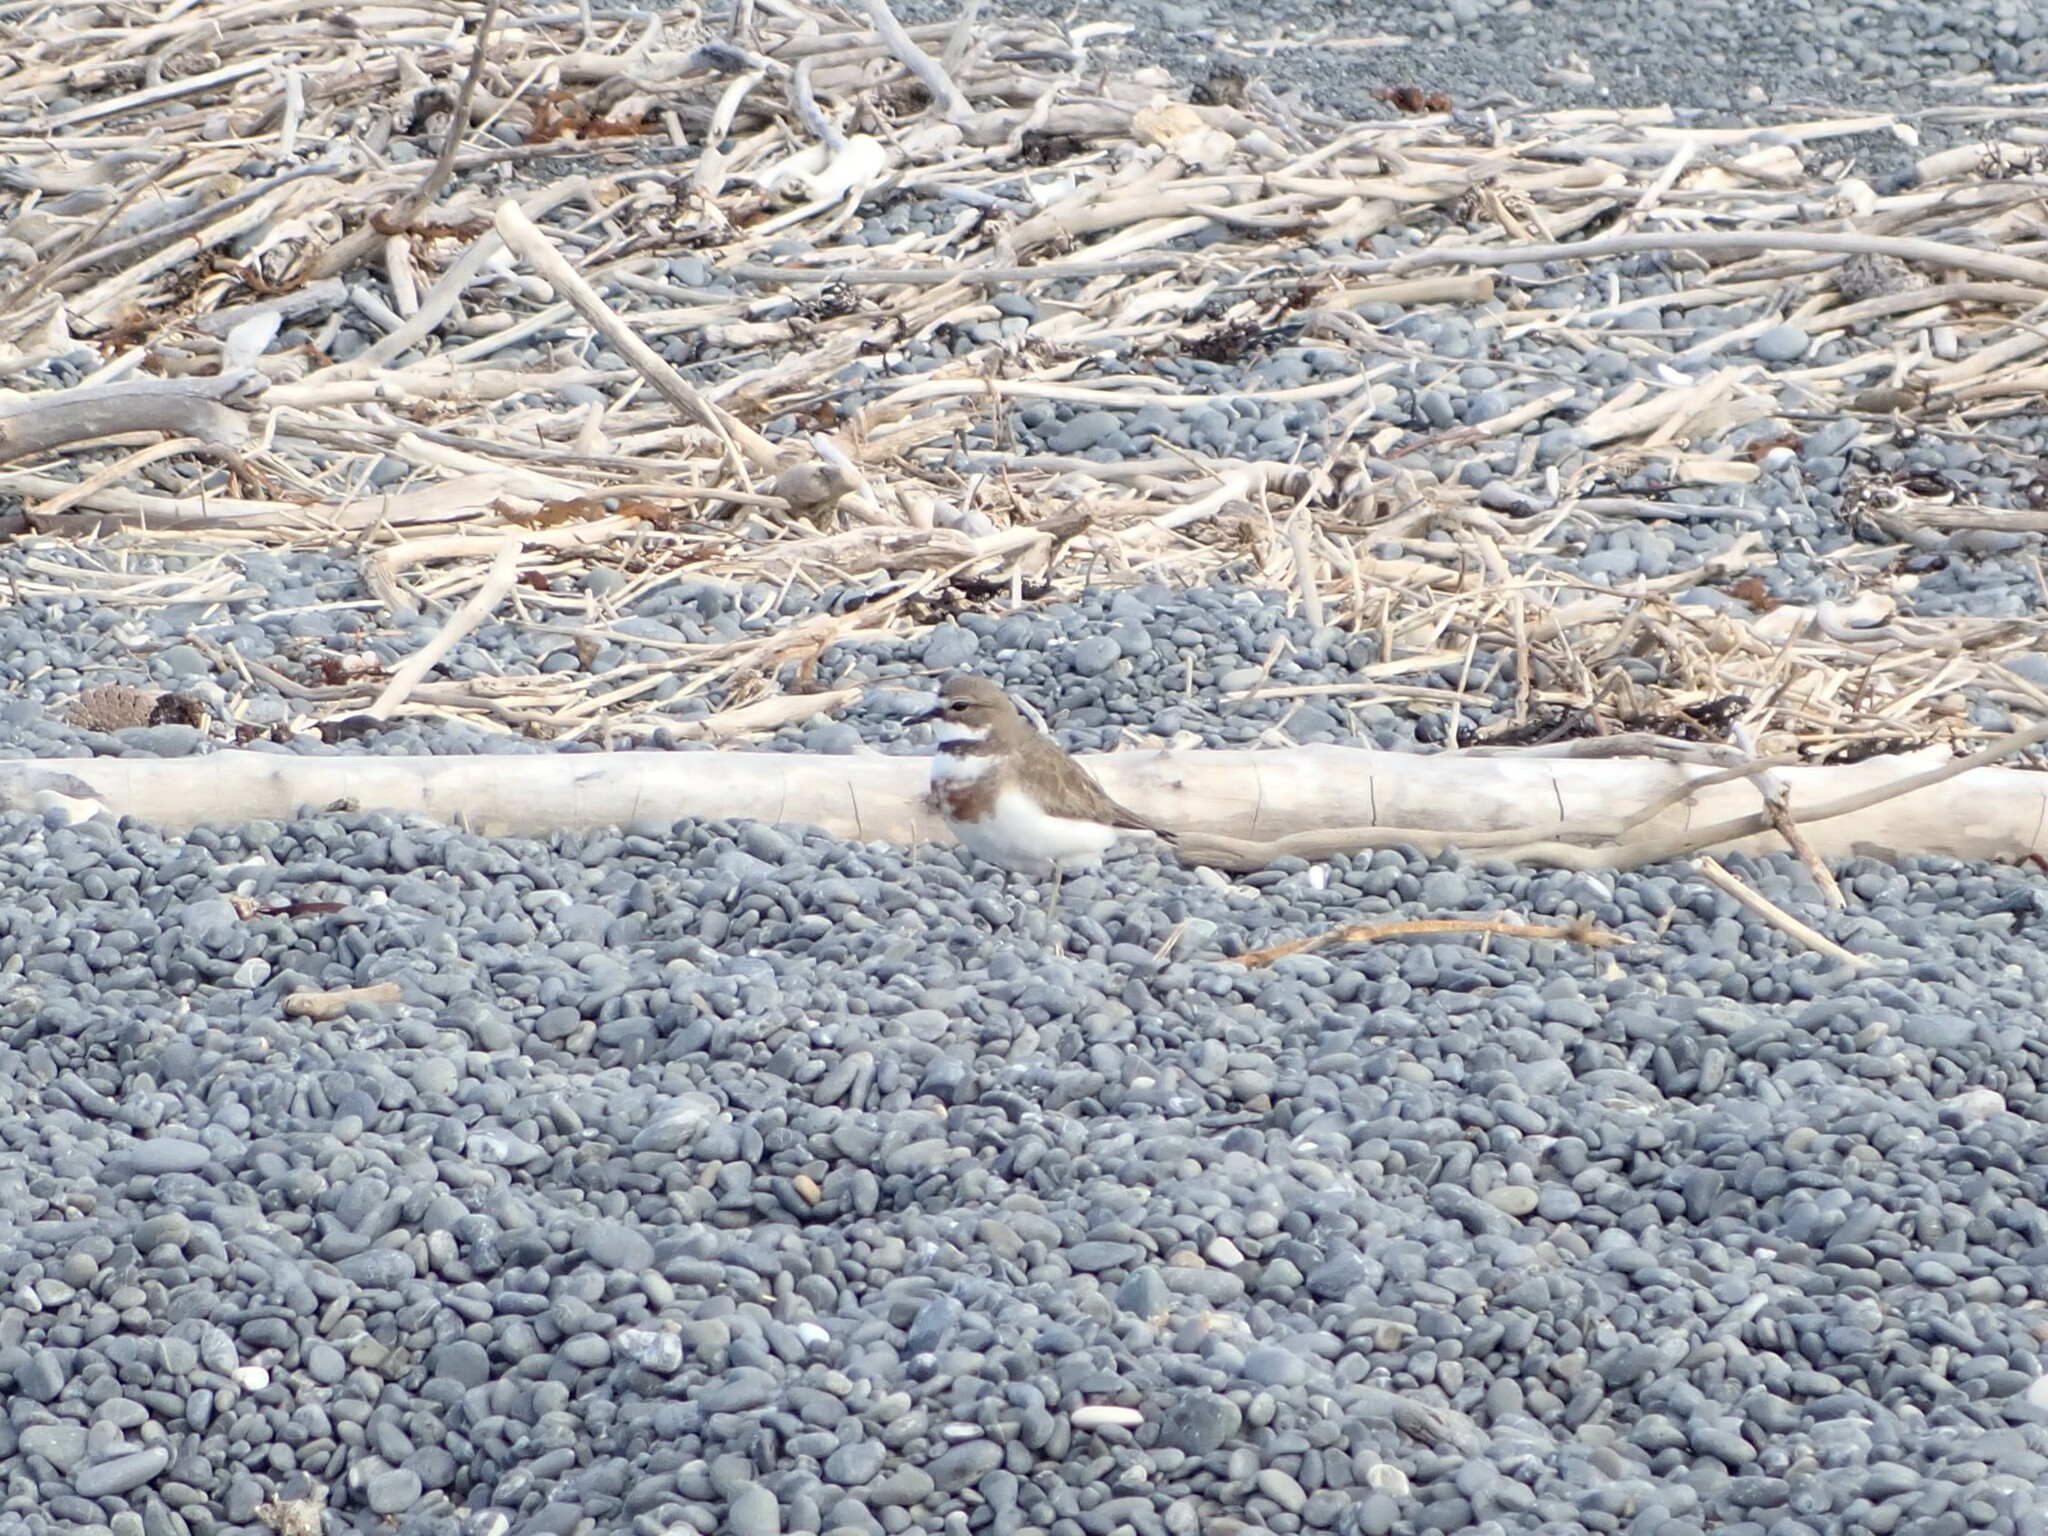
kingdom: Animalia
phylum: Chordata
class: Aves
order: Charadriiformes
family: Charadriidae
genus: Anarhynchus
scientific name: Anarhynchus
